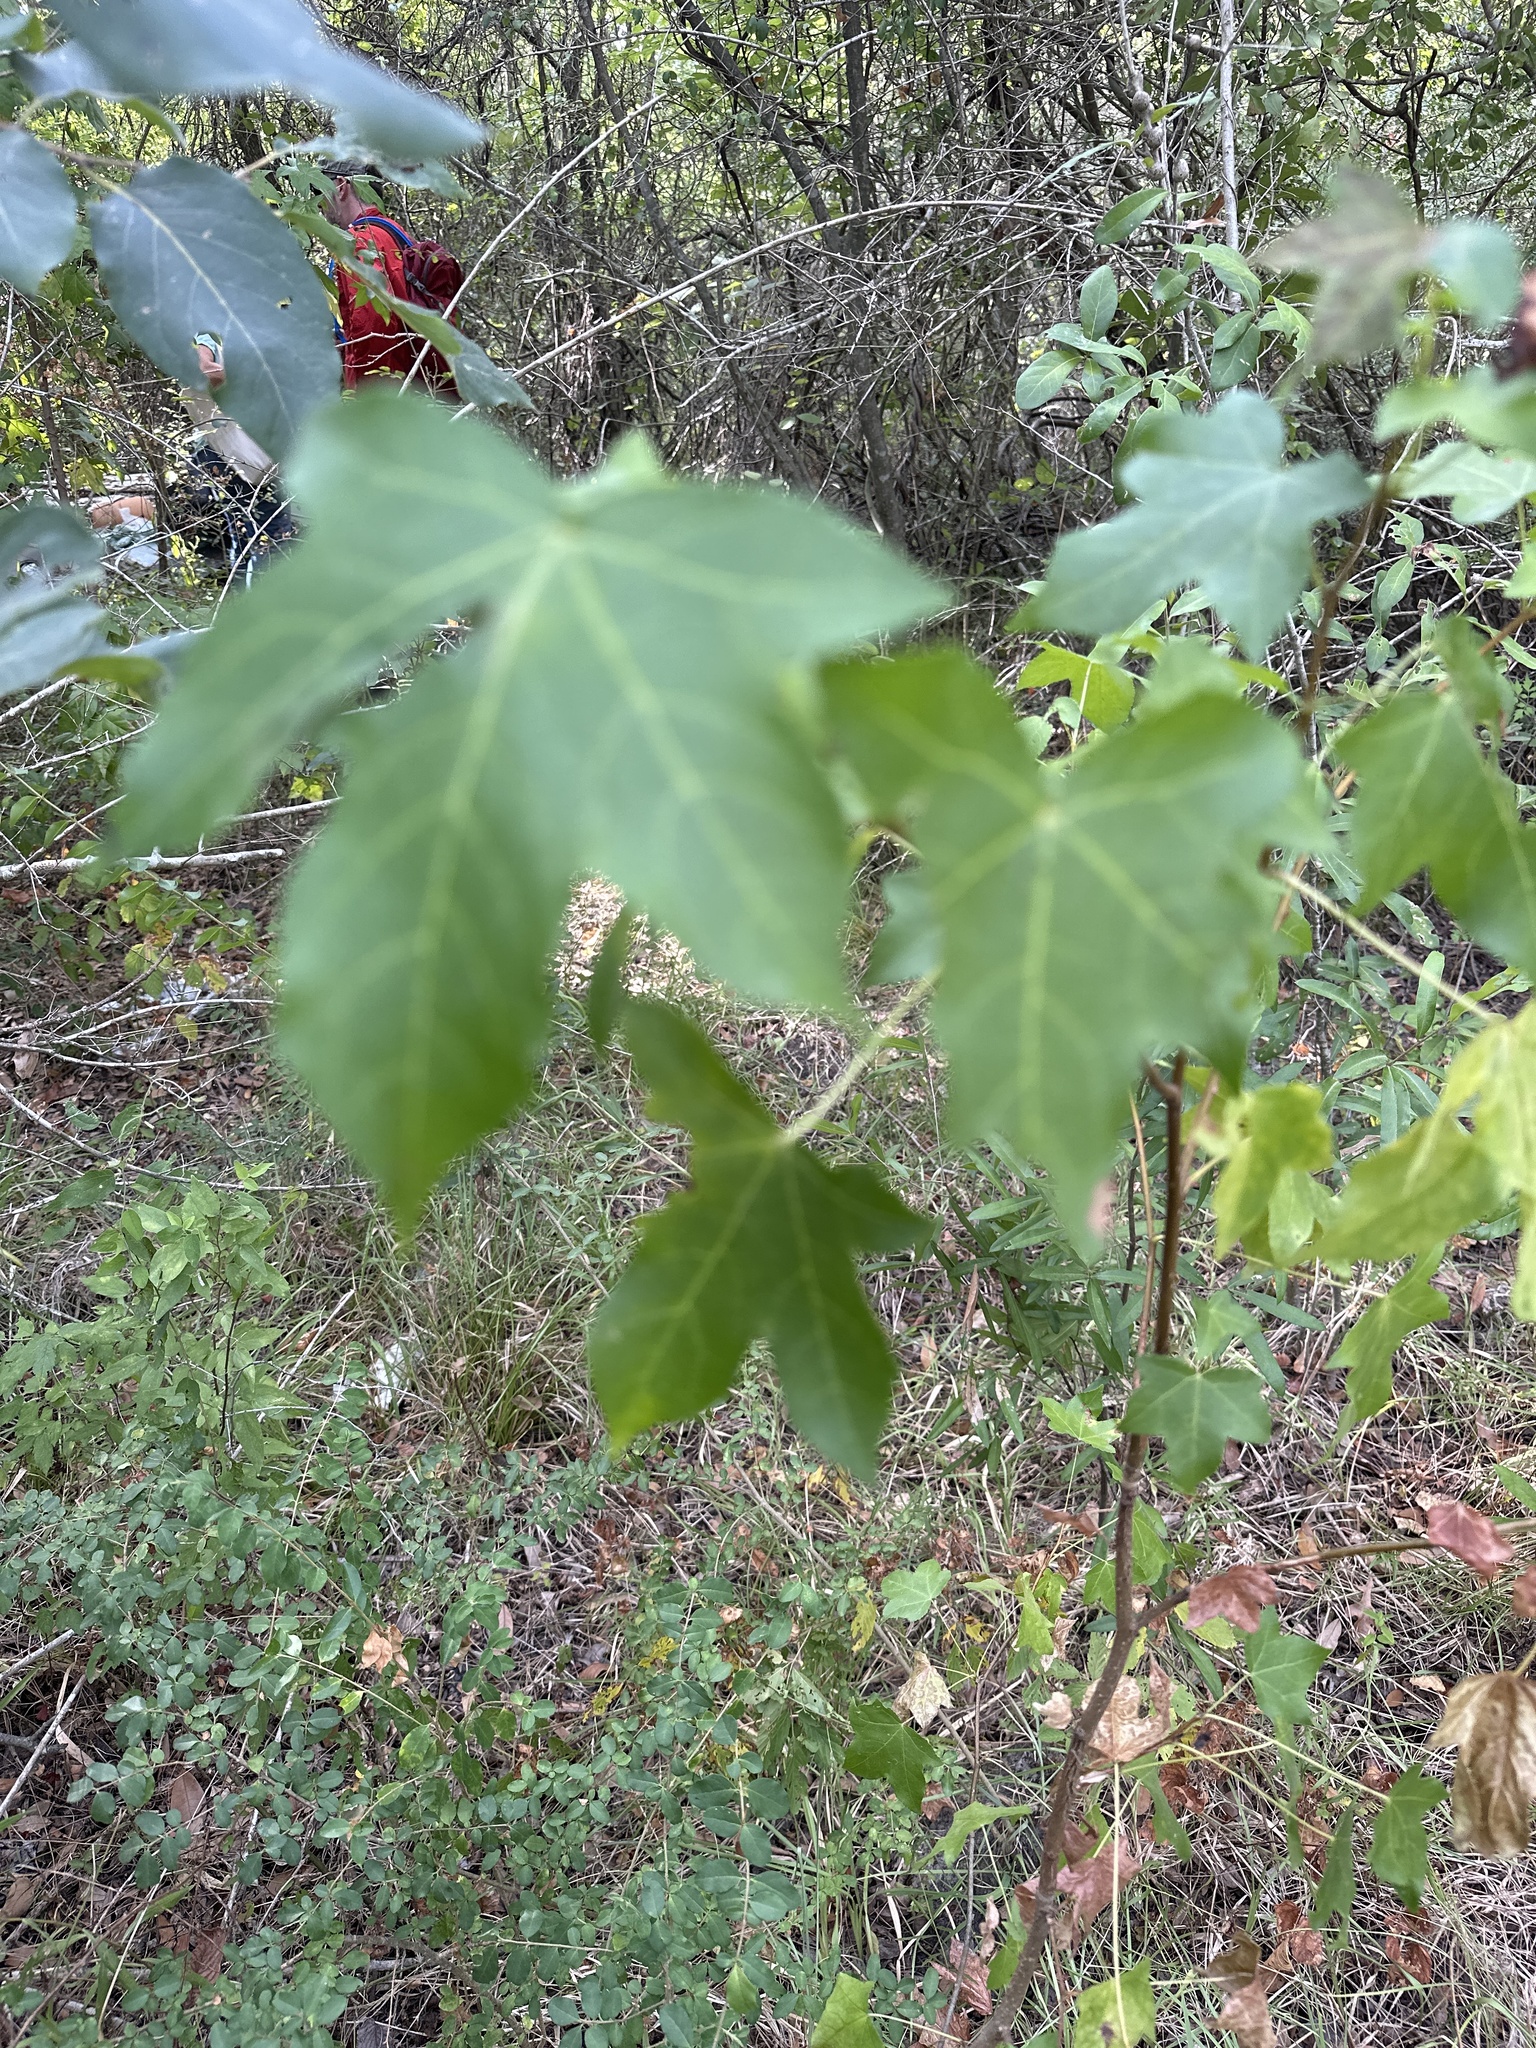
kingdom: Plantae
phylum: Tracheophyta
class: Magnoliopsida
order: Saxifragales
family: Altingiaceae
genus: Liquidambar
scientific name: Liquidambar styraciflua
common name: Sweet gum
